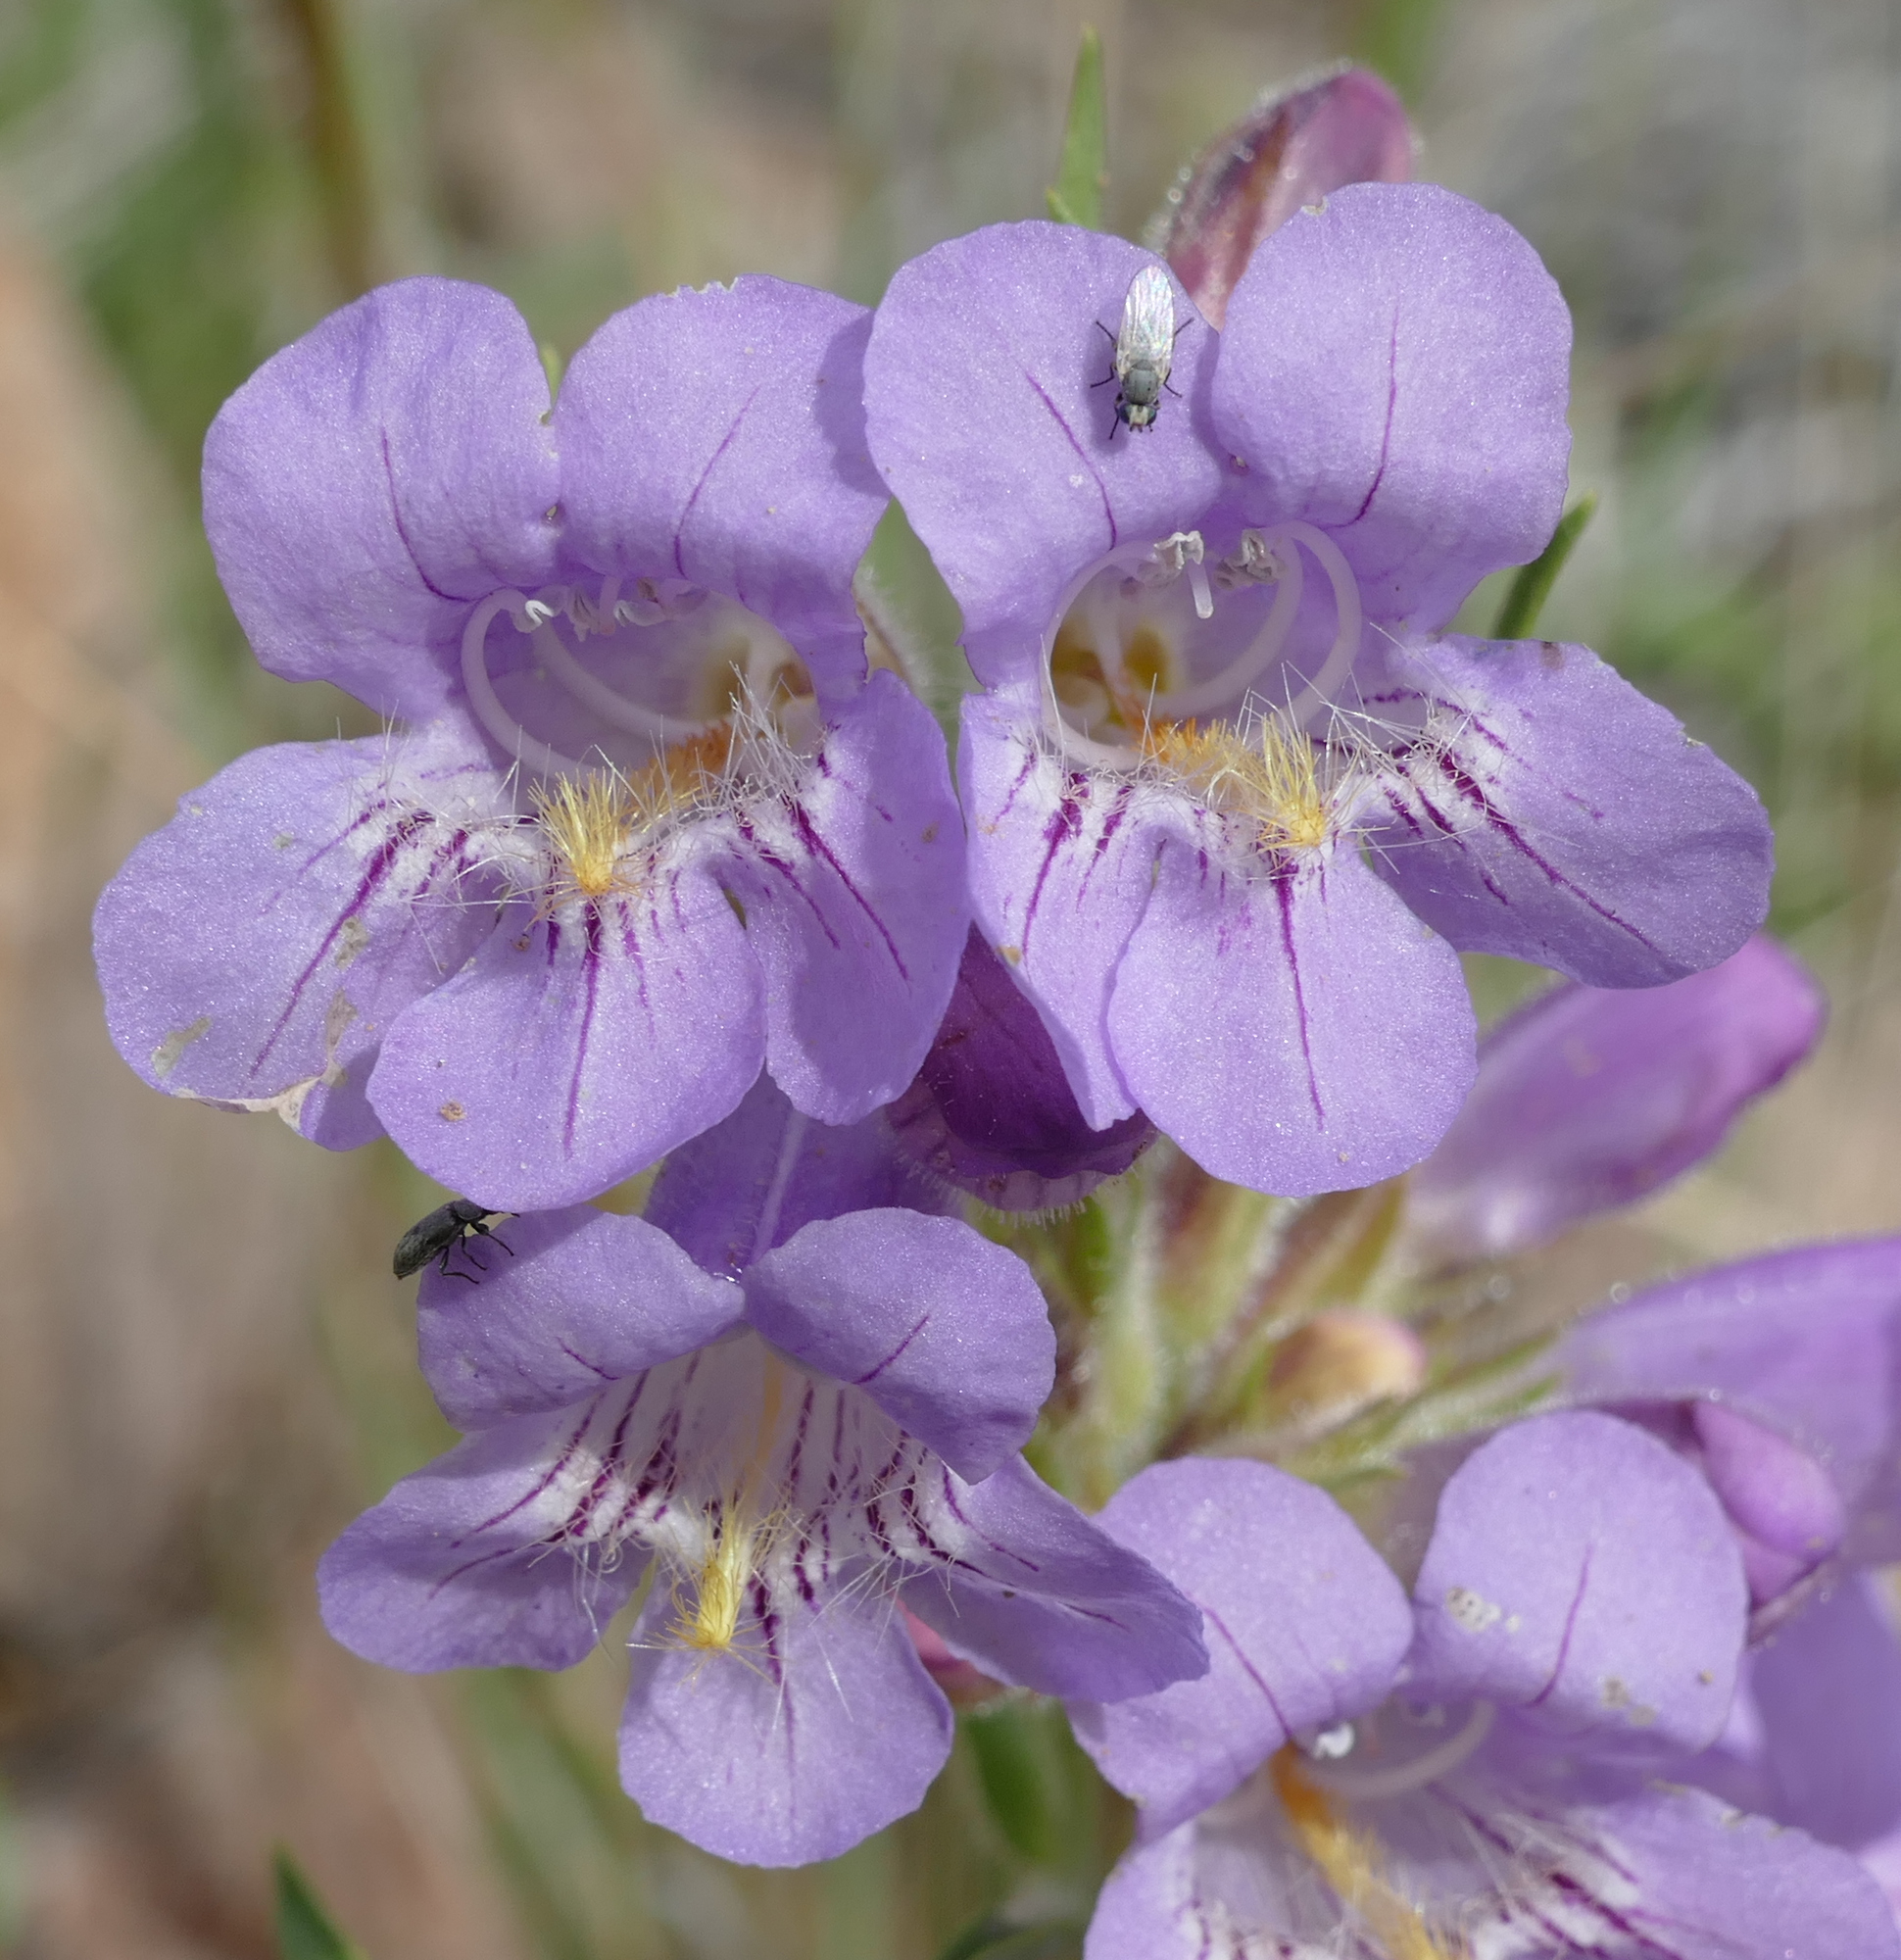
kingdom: Plantae
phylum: Tracheophyta
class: Magnoliopsida
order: Lamiales
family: Plantaginaceae
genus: Penstemon
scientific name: Penstemon eriantherus
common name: Crested beardtongue
